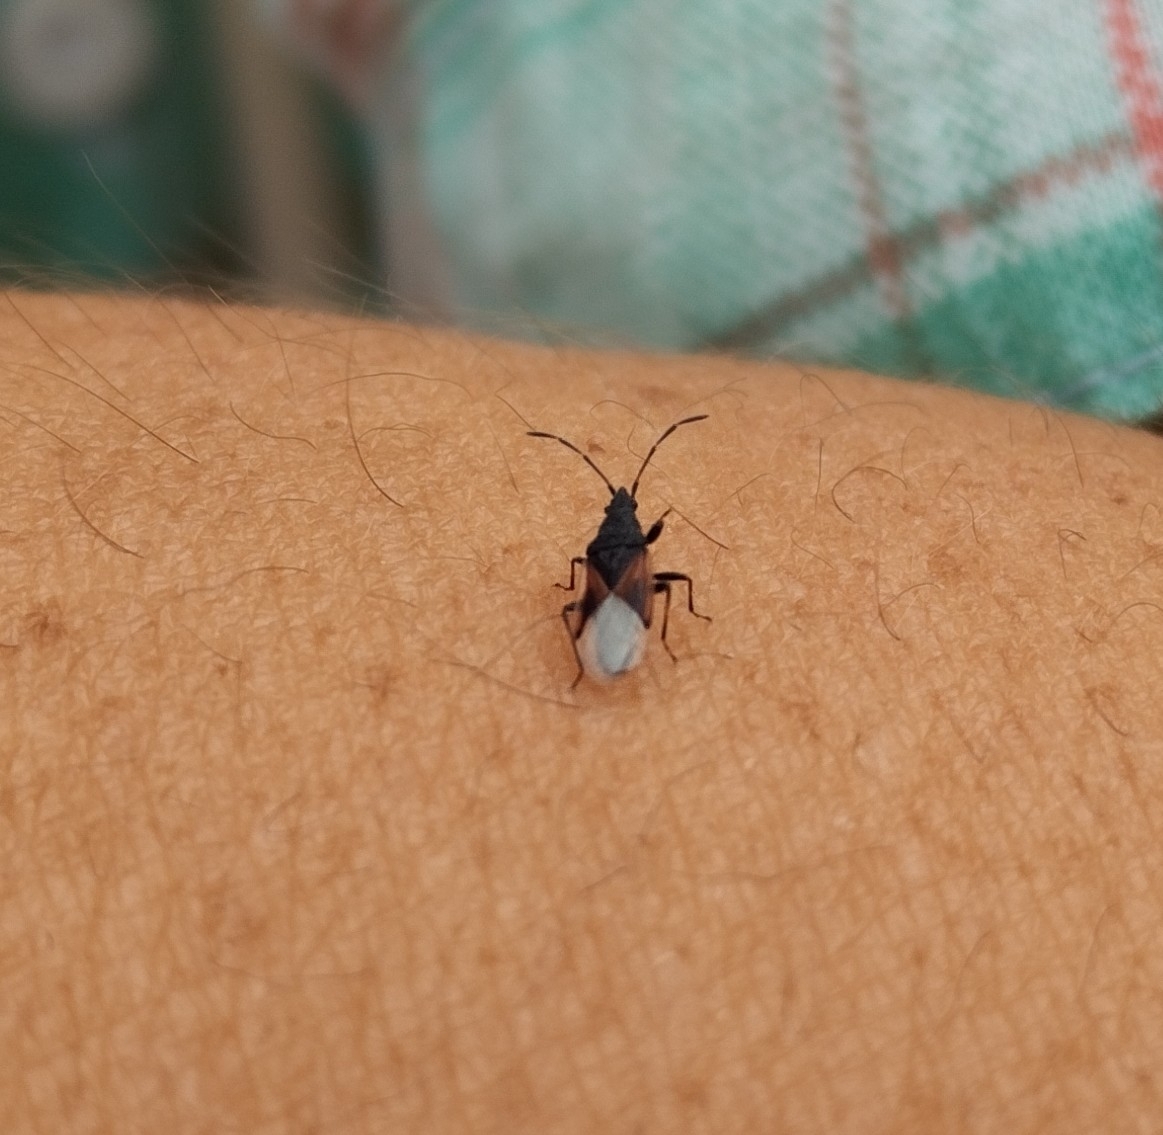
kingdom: Animalia
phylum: Arthropoda
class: Insecta
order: Hemiptera
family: Oxycarenidae
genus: Oxycarenus
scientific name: Oxycarenus lavaterae
